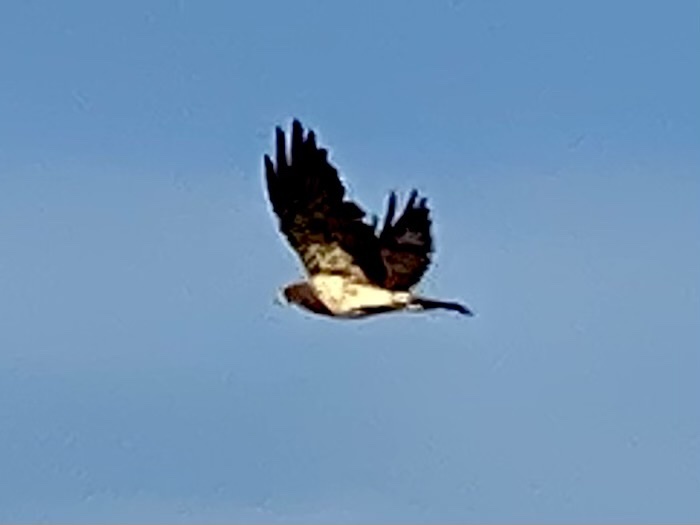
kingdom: Animalia
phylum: Chordata
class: Aves
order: Accipitriformes
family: Accipitridae
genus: Buteo
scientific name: Buteo swainsoni
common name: Swainson's hawk
